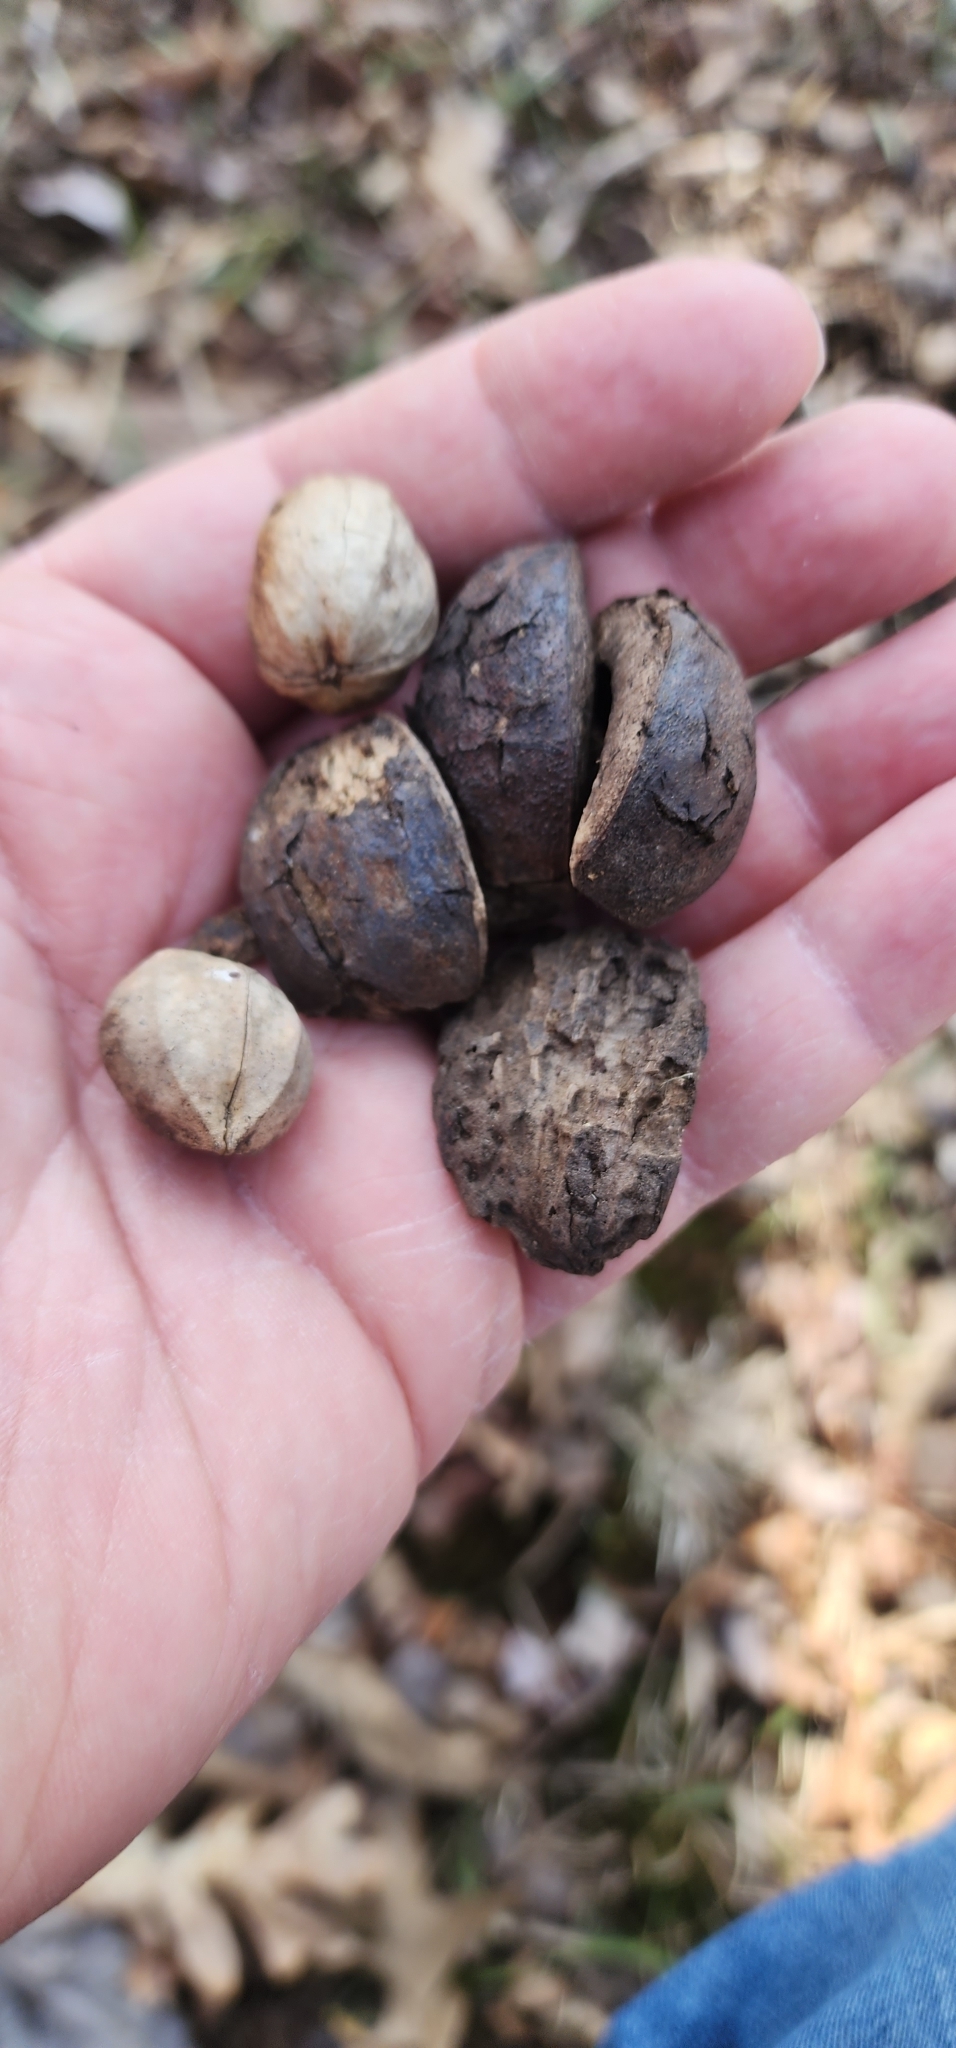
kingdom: Plantae
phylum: Tracheophyta
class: Magnoliopsida
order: Fagales
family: Juglandaceae
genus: Carya
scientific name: Carya ovata
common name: Shagbark hickory
